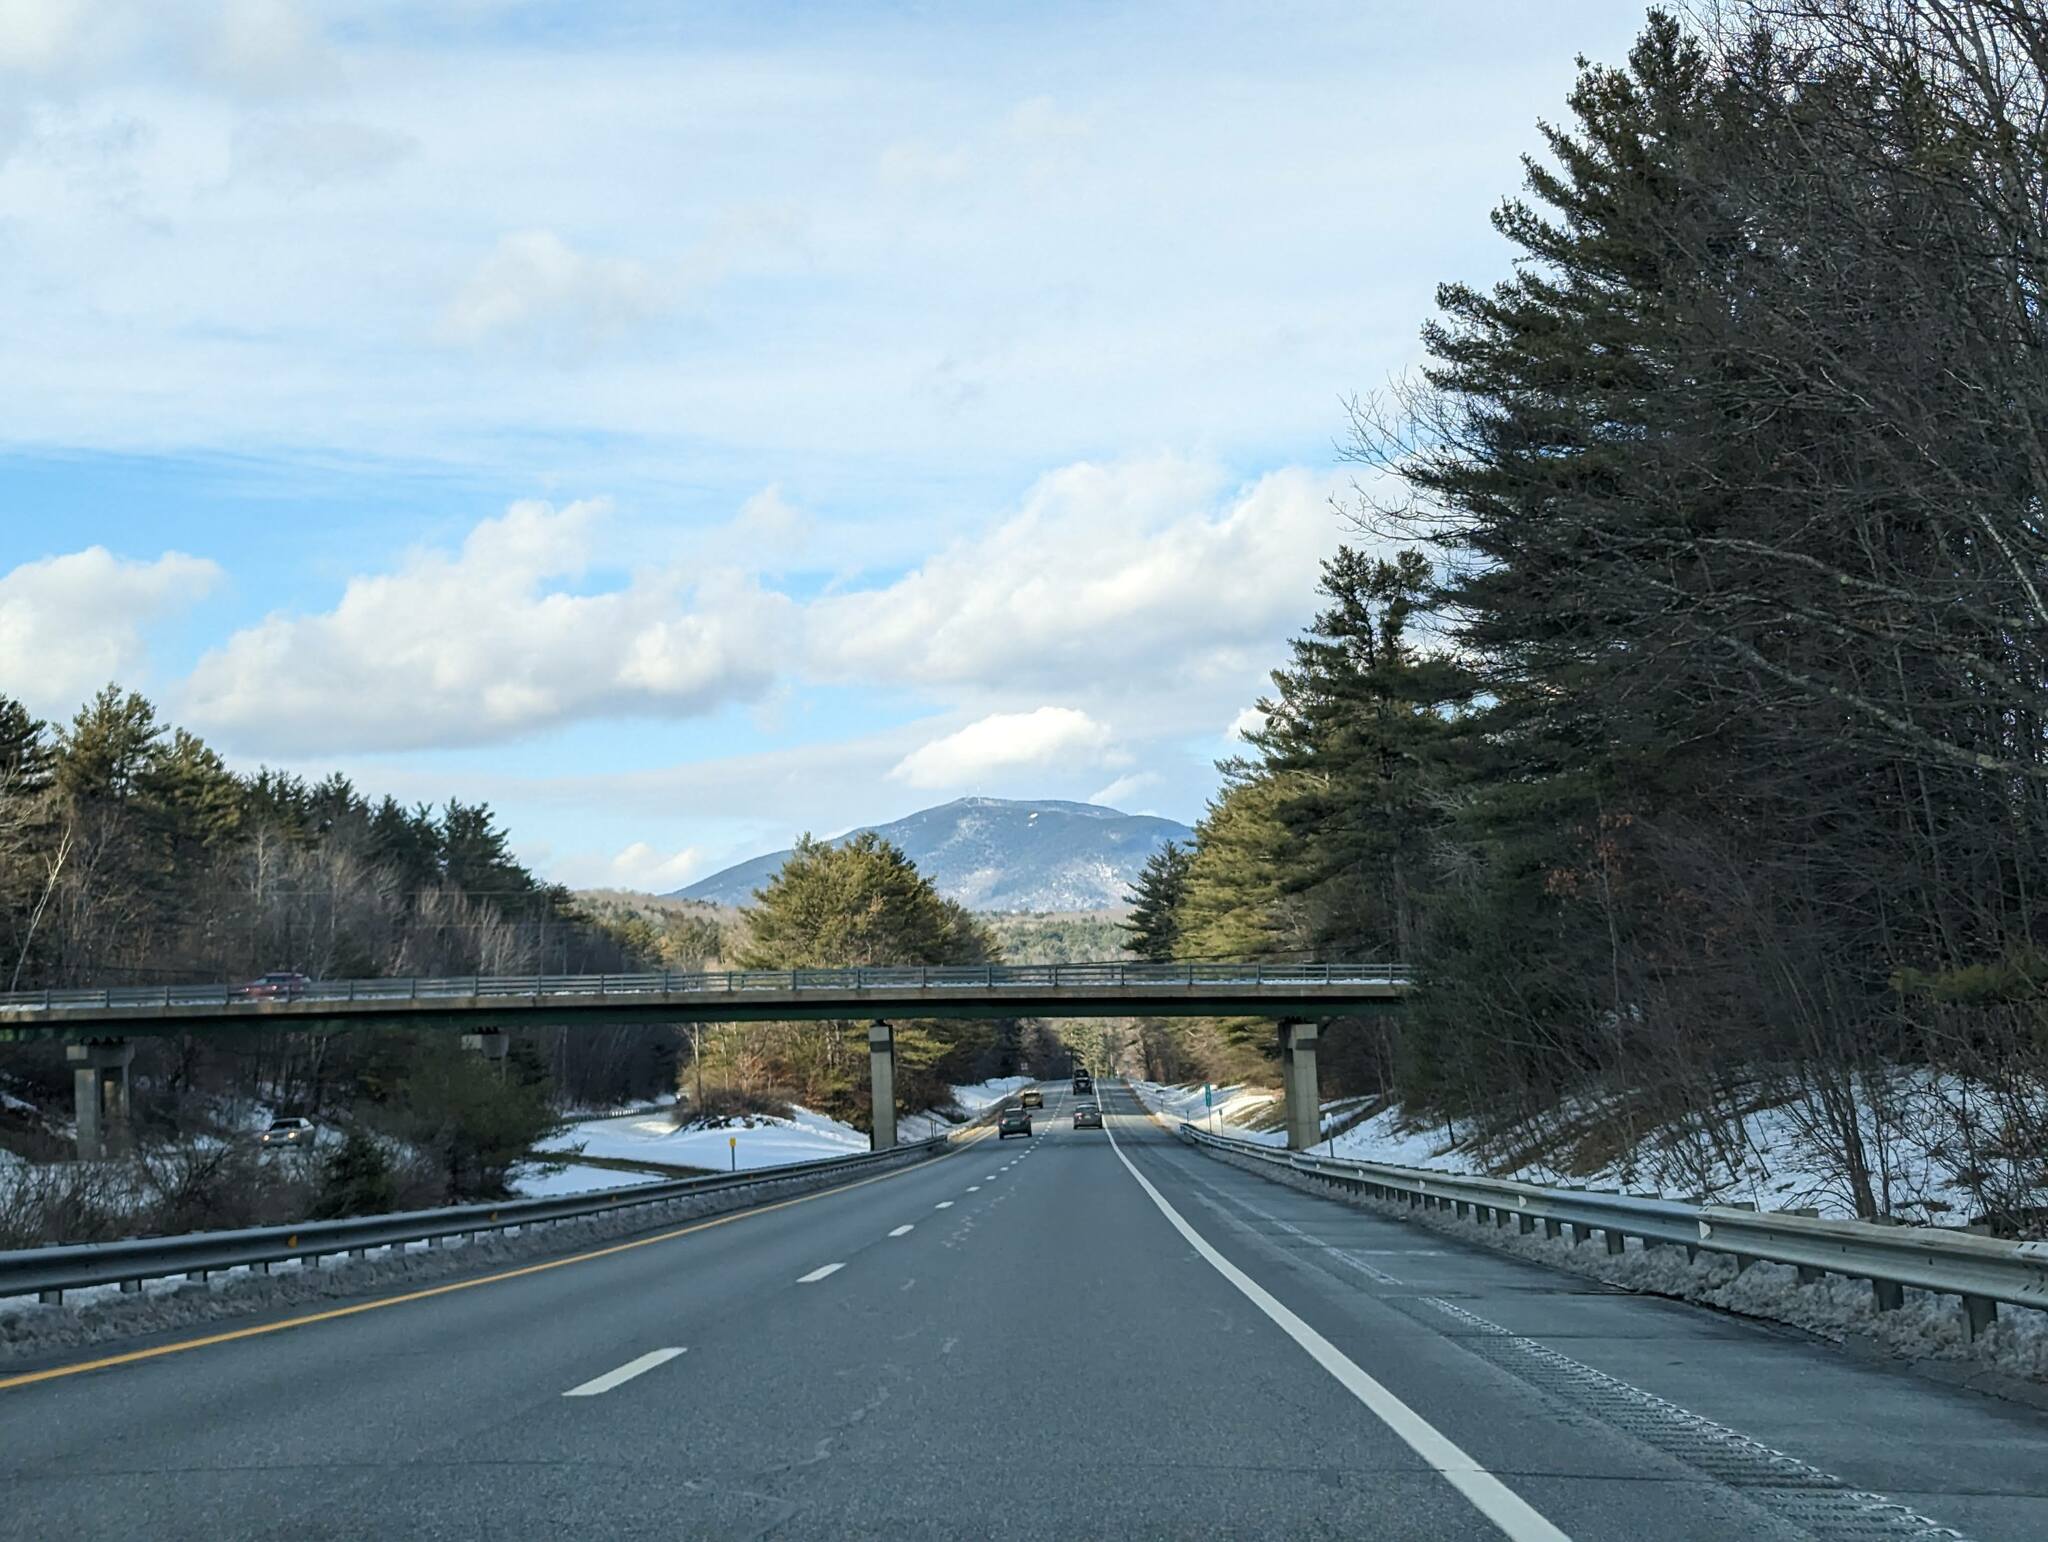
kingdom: Plantae
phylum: Tracheophyta
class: Pinopsida
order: Pinales
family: Pinaceae
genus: Pinus
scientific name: Pinus strobus
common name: Weymouth pine
